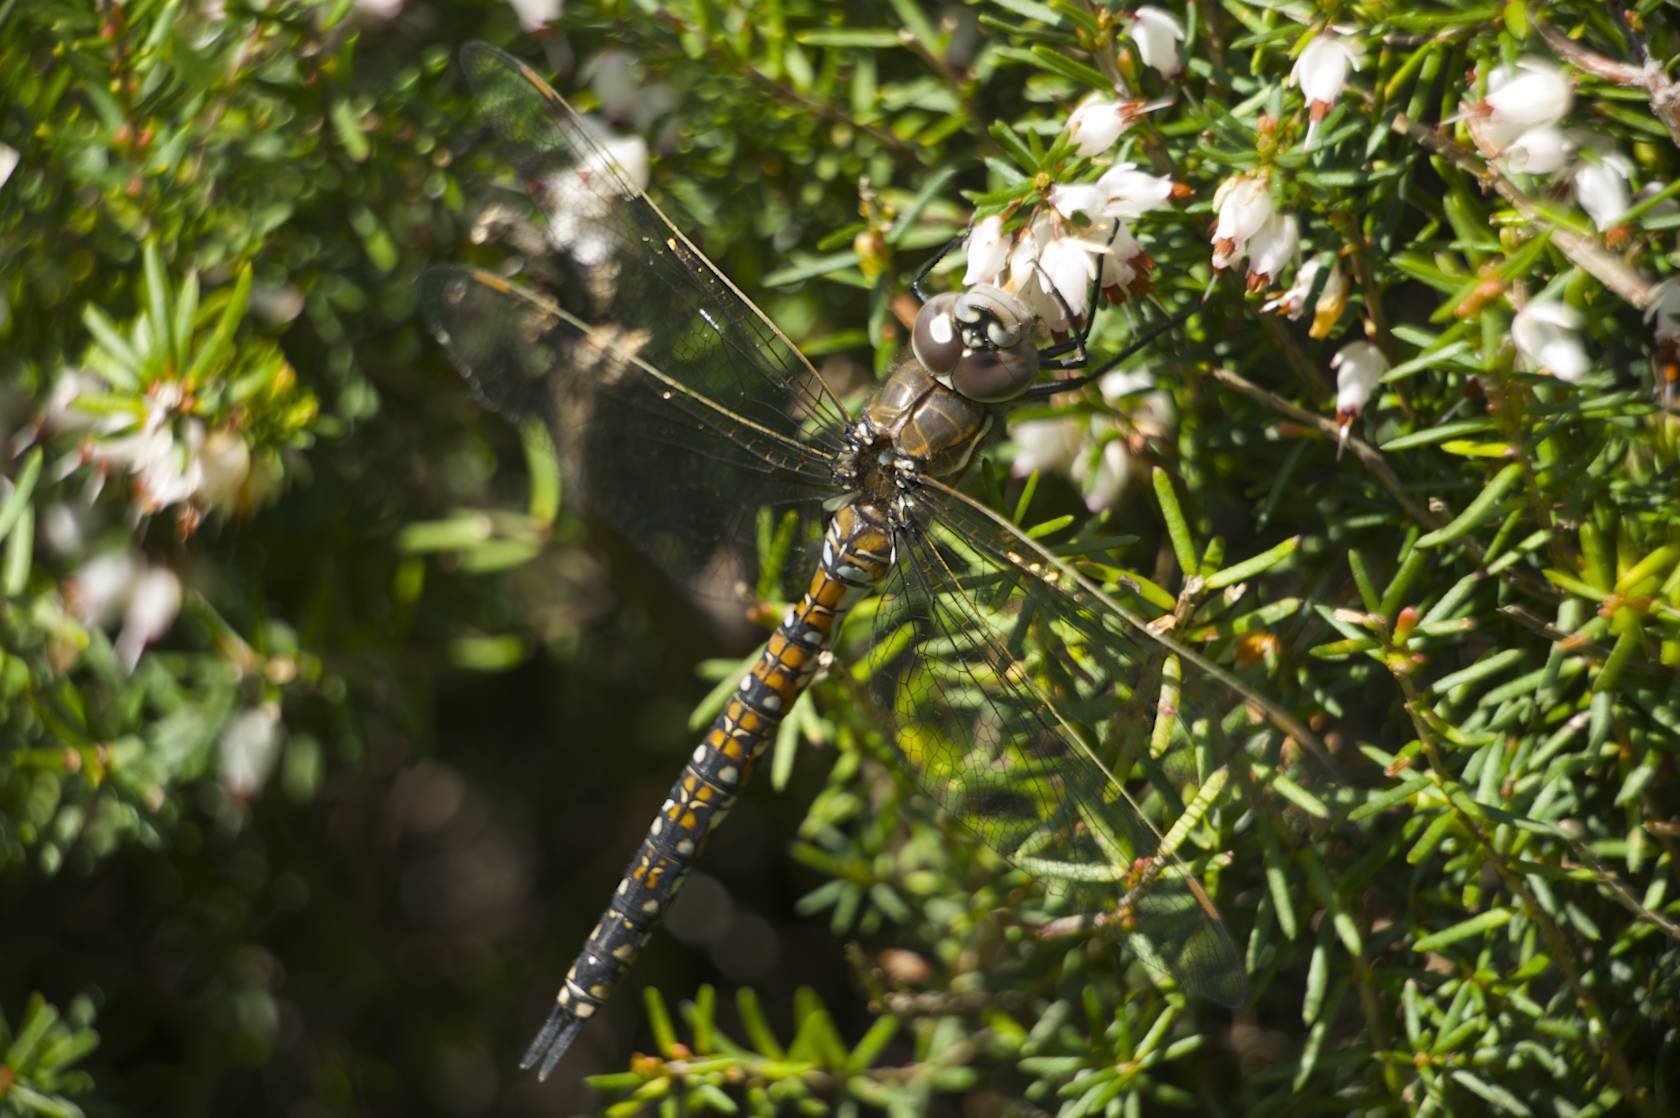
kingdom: Animalia
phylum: Arthropoda
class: Insecta
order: Odonata
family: Aeshnidae
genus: Rhionaeschna
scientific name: Rhionaeschna californica
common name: California darner
